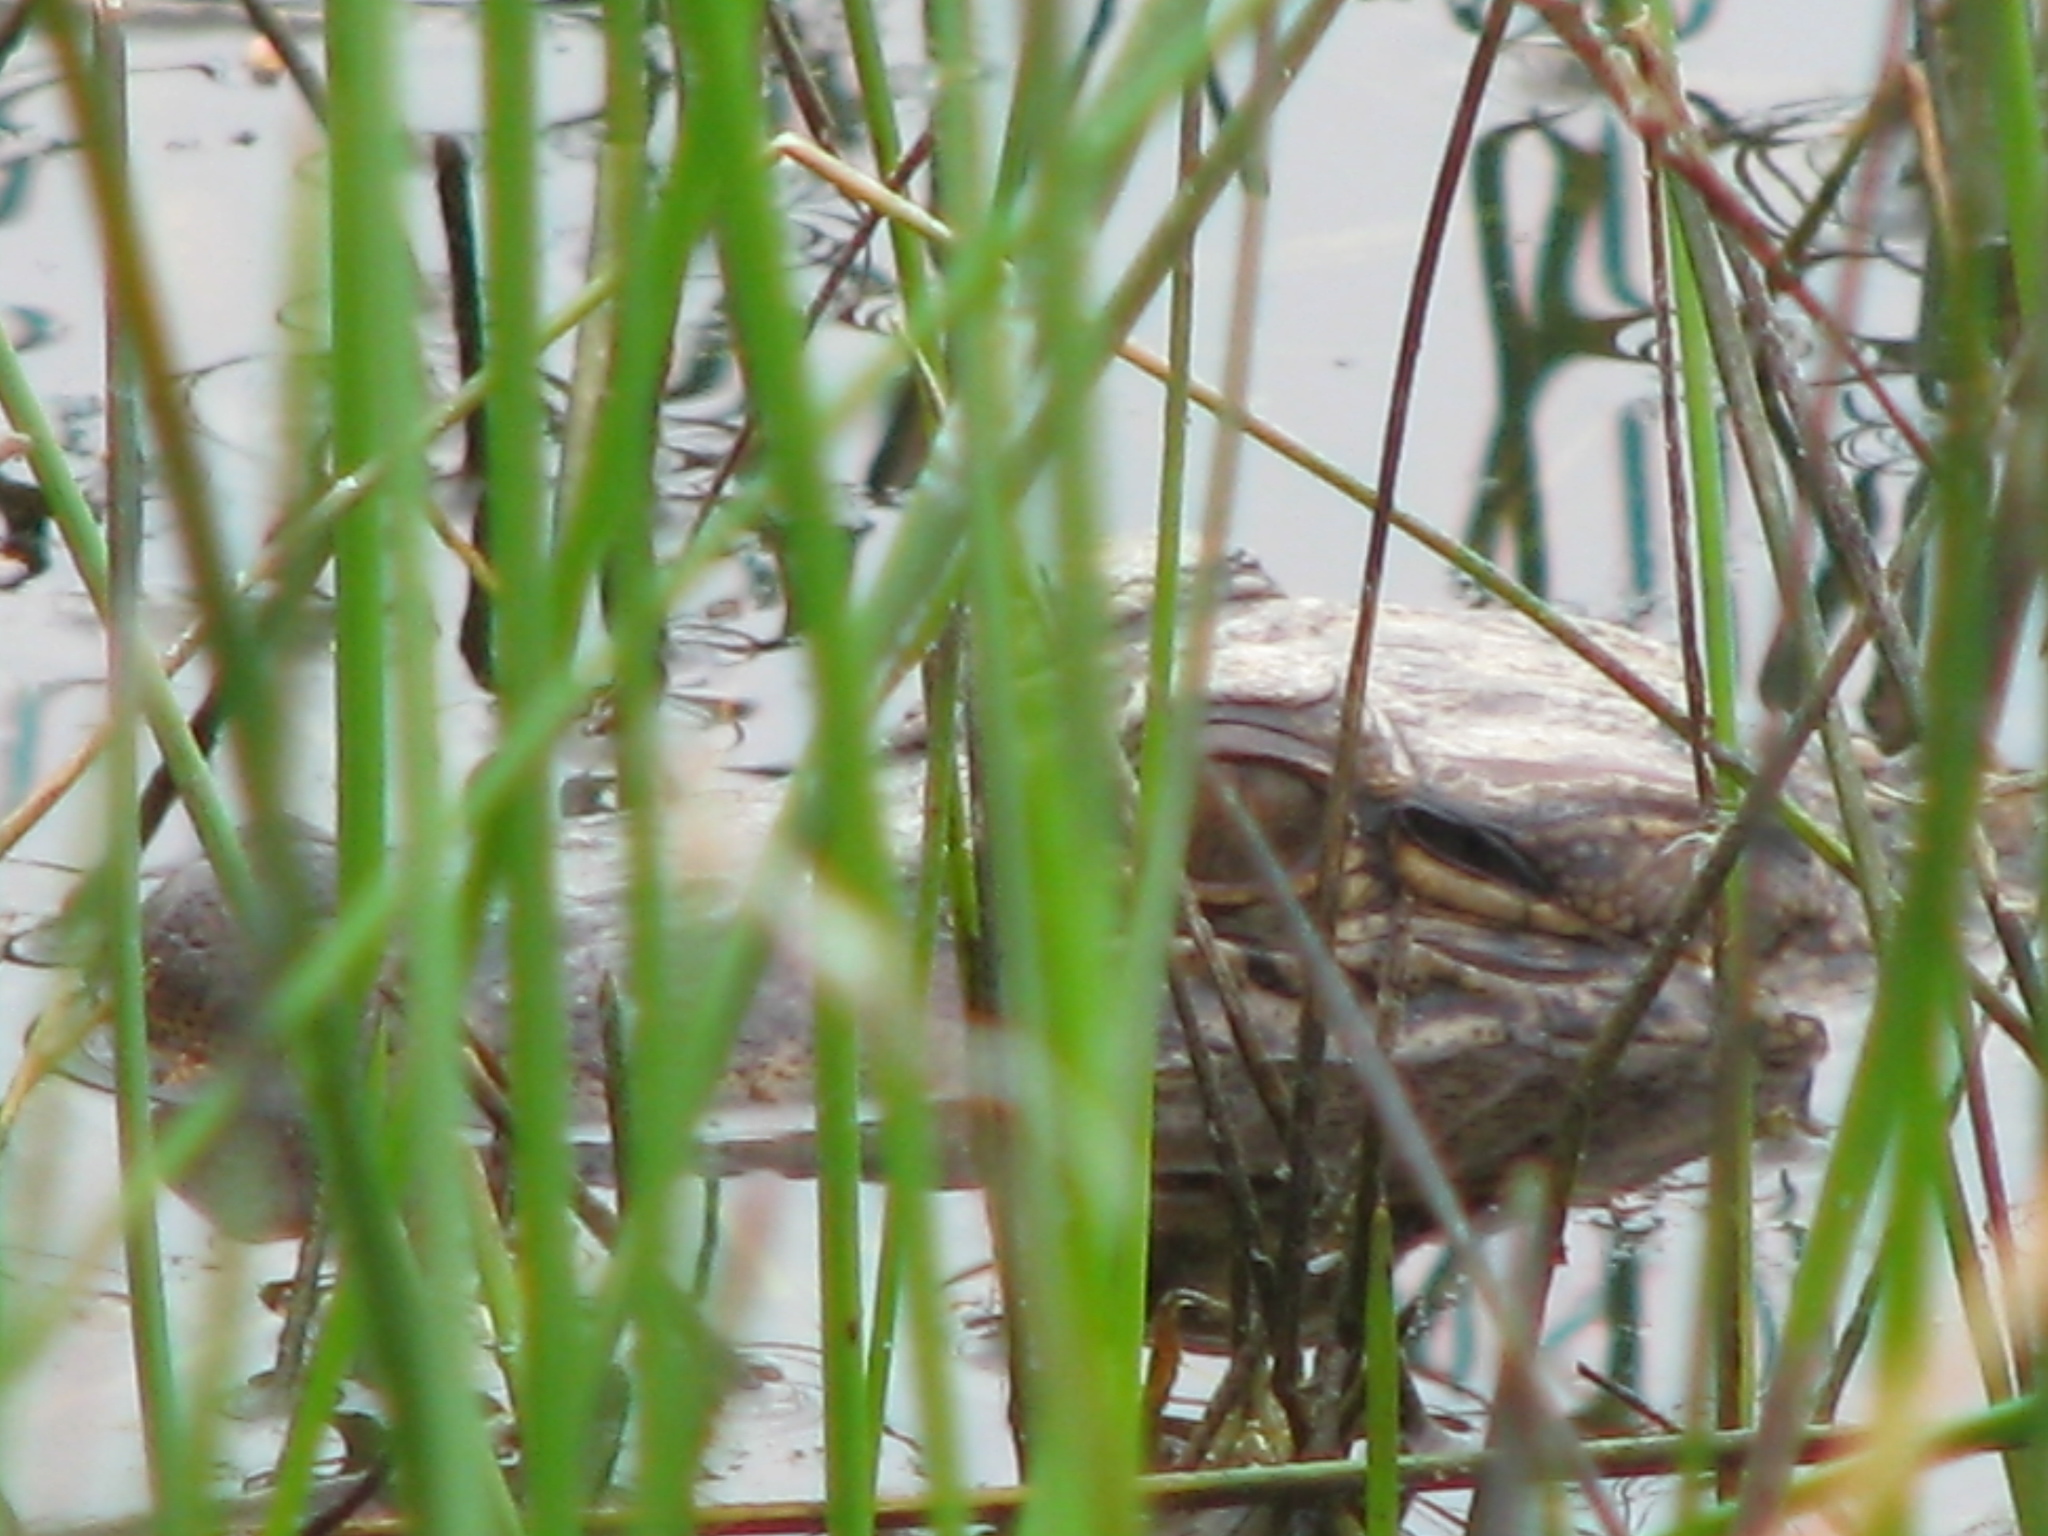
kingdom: Animalia
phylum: Chordata
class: Crocodylia
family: Alligatoridae
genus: Alligator
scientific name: Alligator mississippiensis
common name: American alligator
